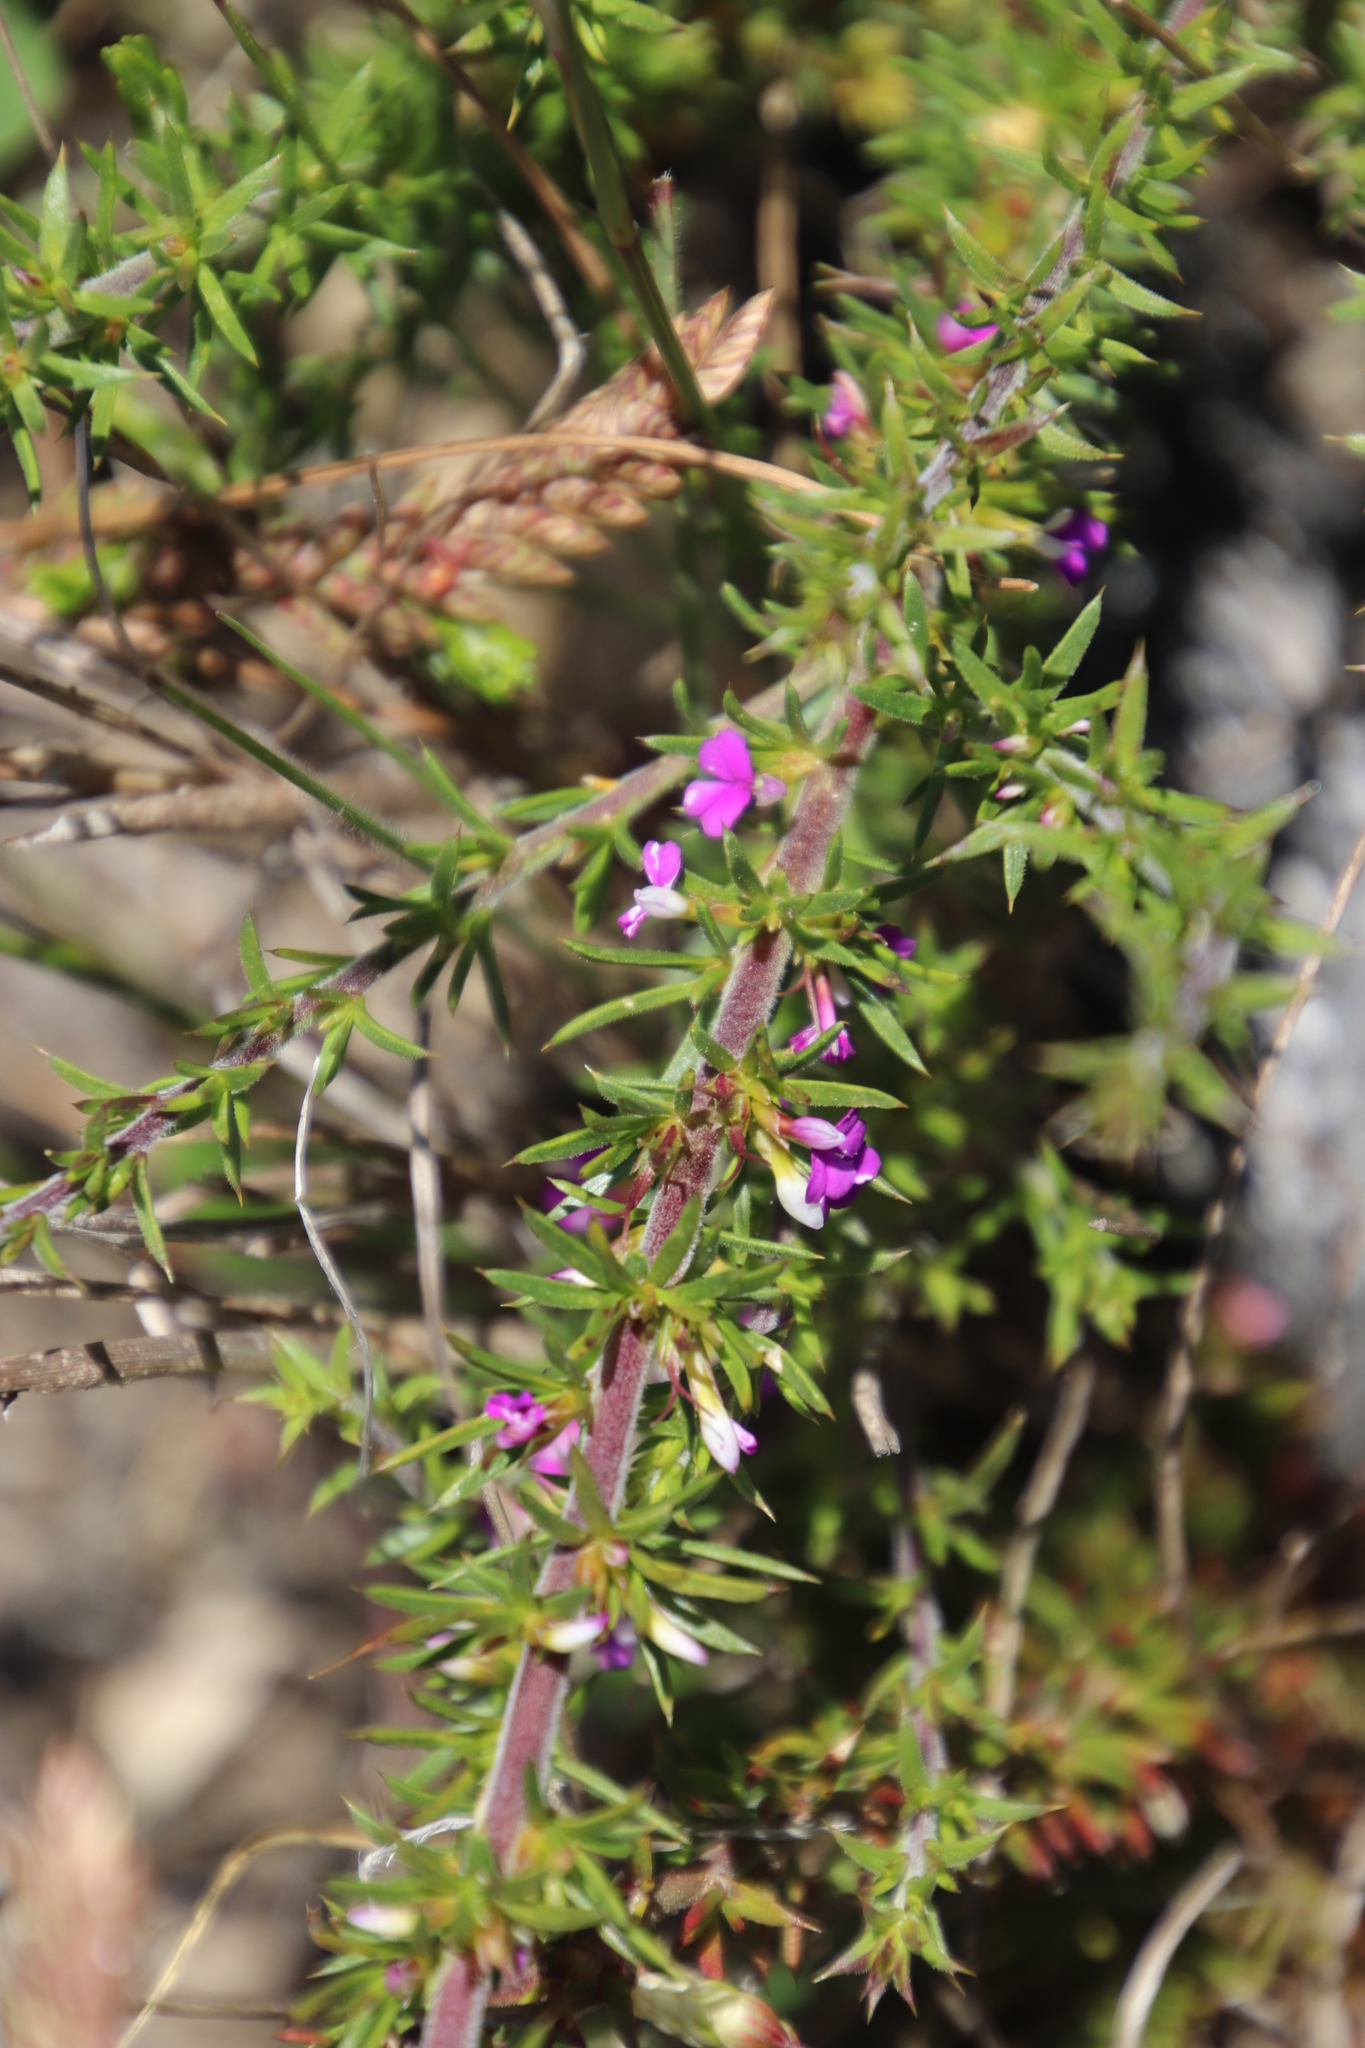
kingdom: Plantae
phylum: Tracheophyta
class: Magnoliopsida
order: Fabales
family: Polygalaceae
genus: Muraltia
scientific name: Muraltia heisteria
